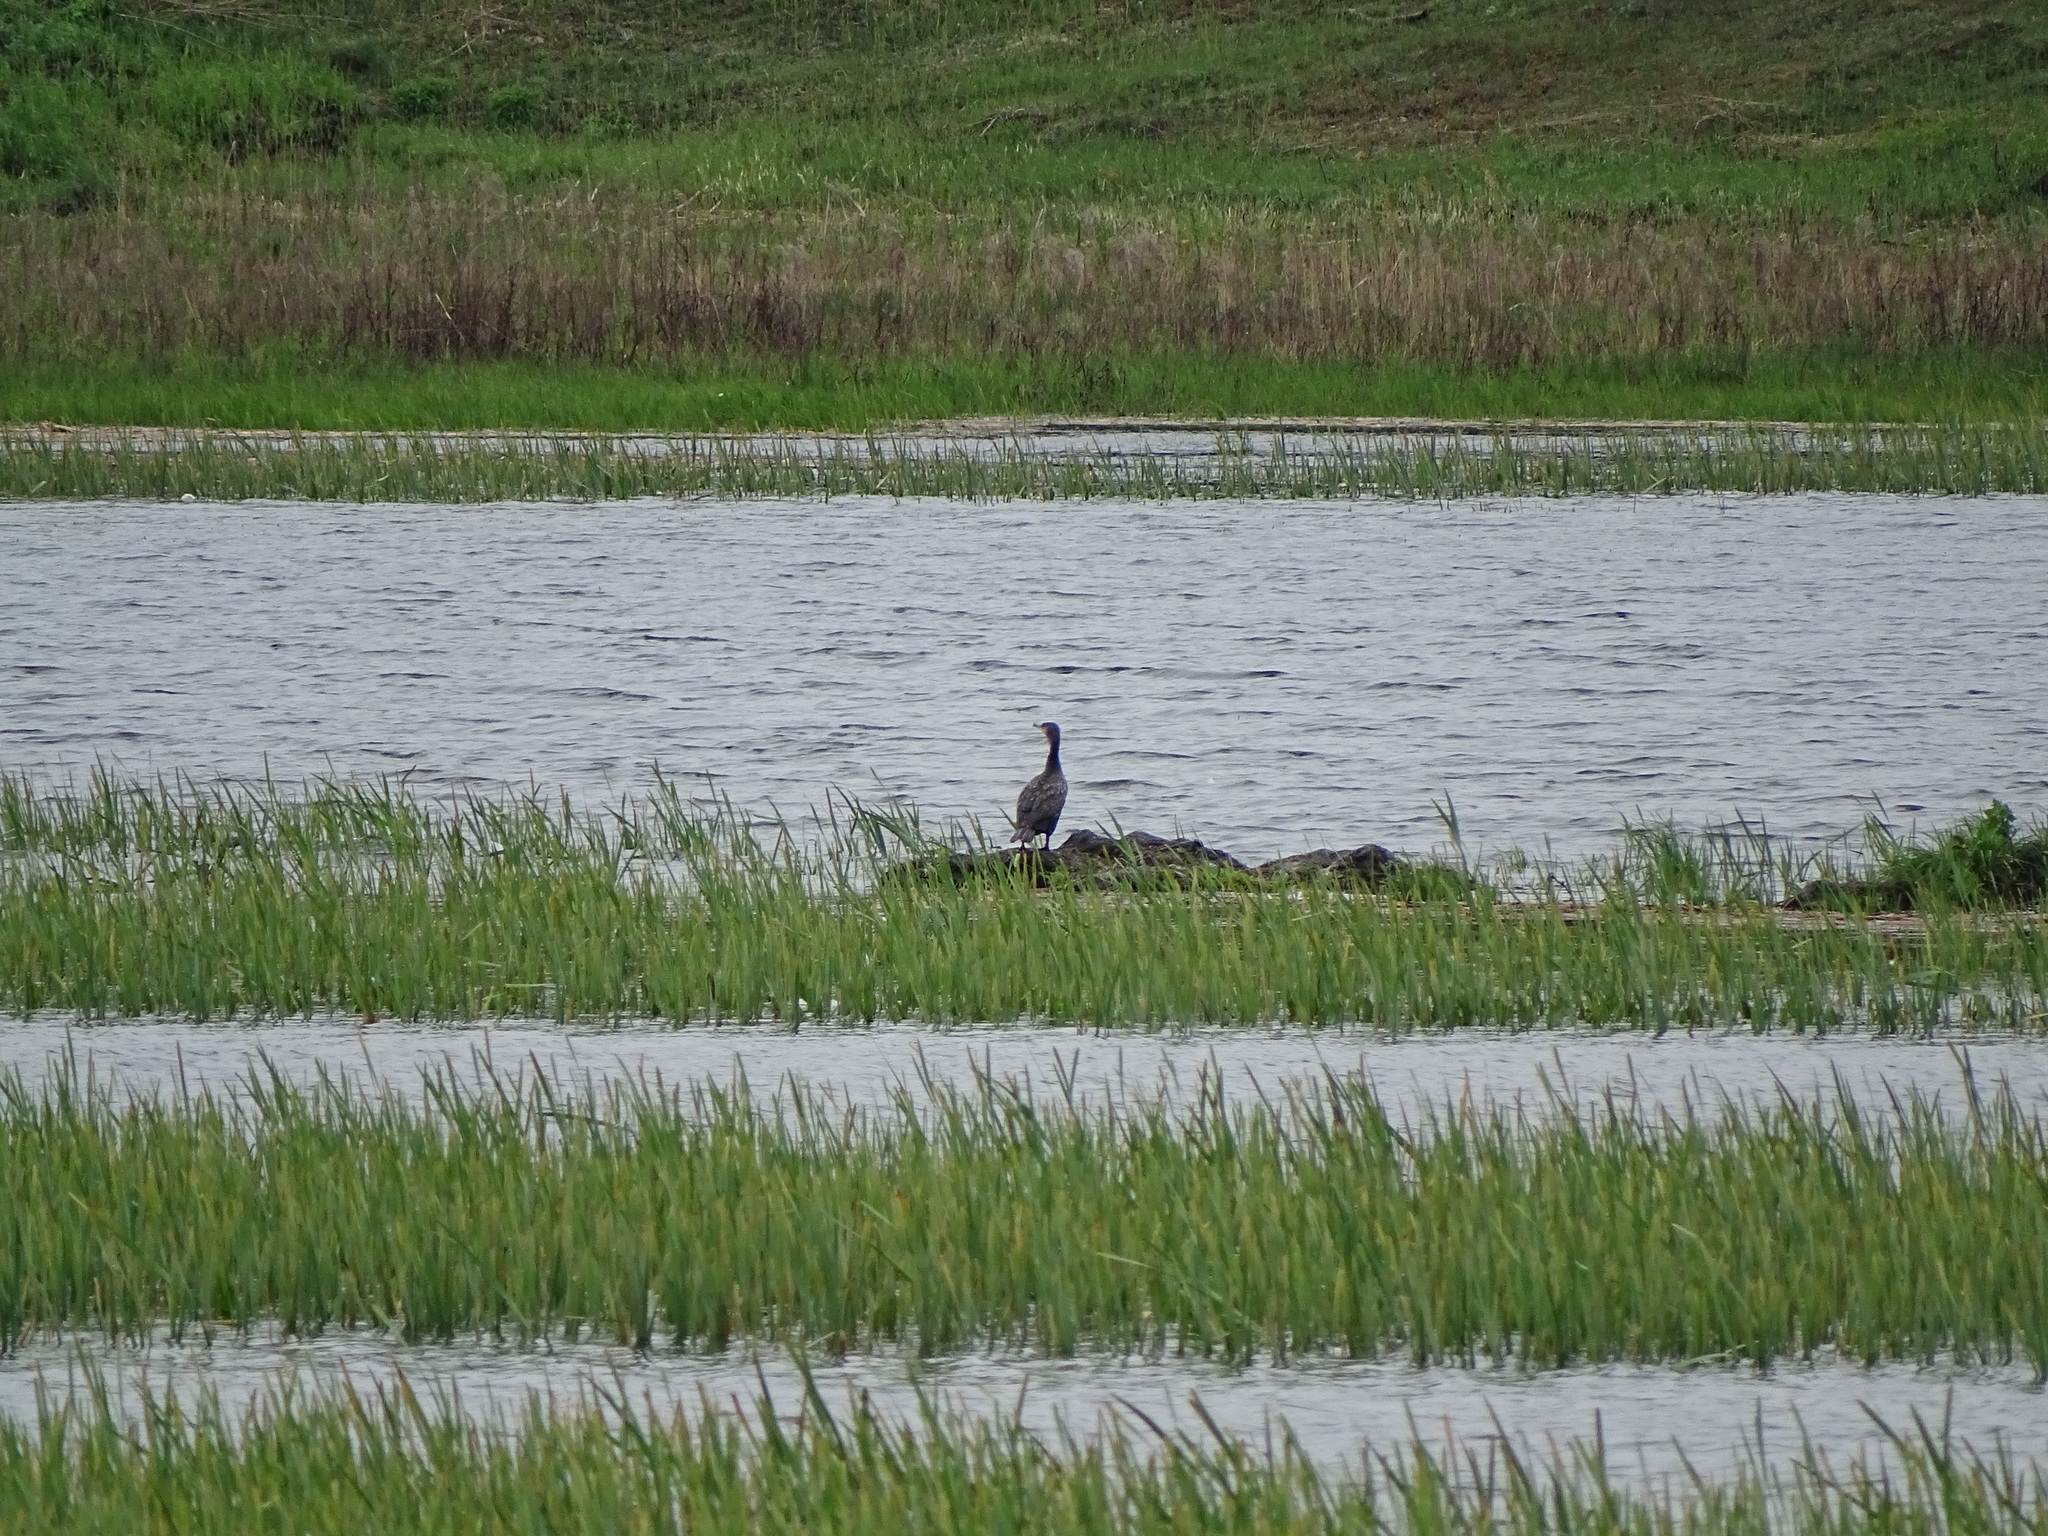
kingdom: Animalia
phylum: Chordata
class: Aves
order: Suliformes
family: Phalacrocoracidae
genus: Phalacrocorax
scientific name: Phalacrocorax carbo
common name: Great cormorant
